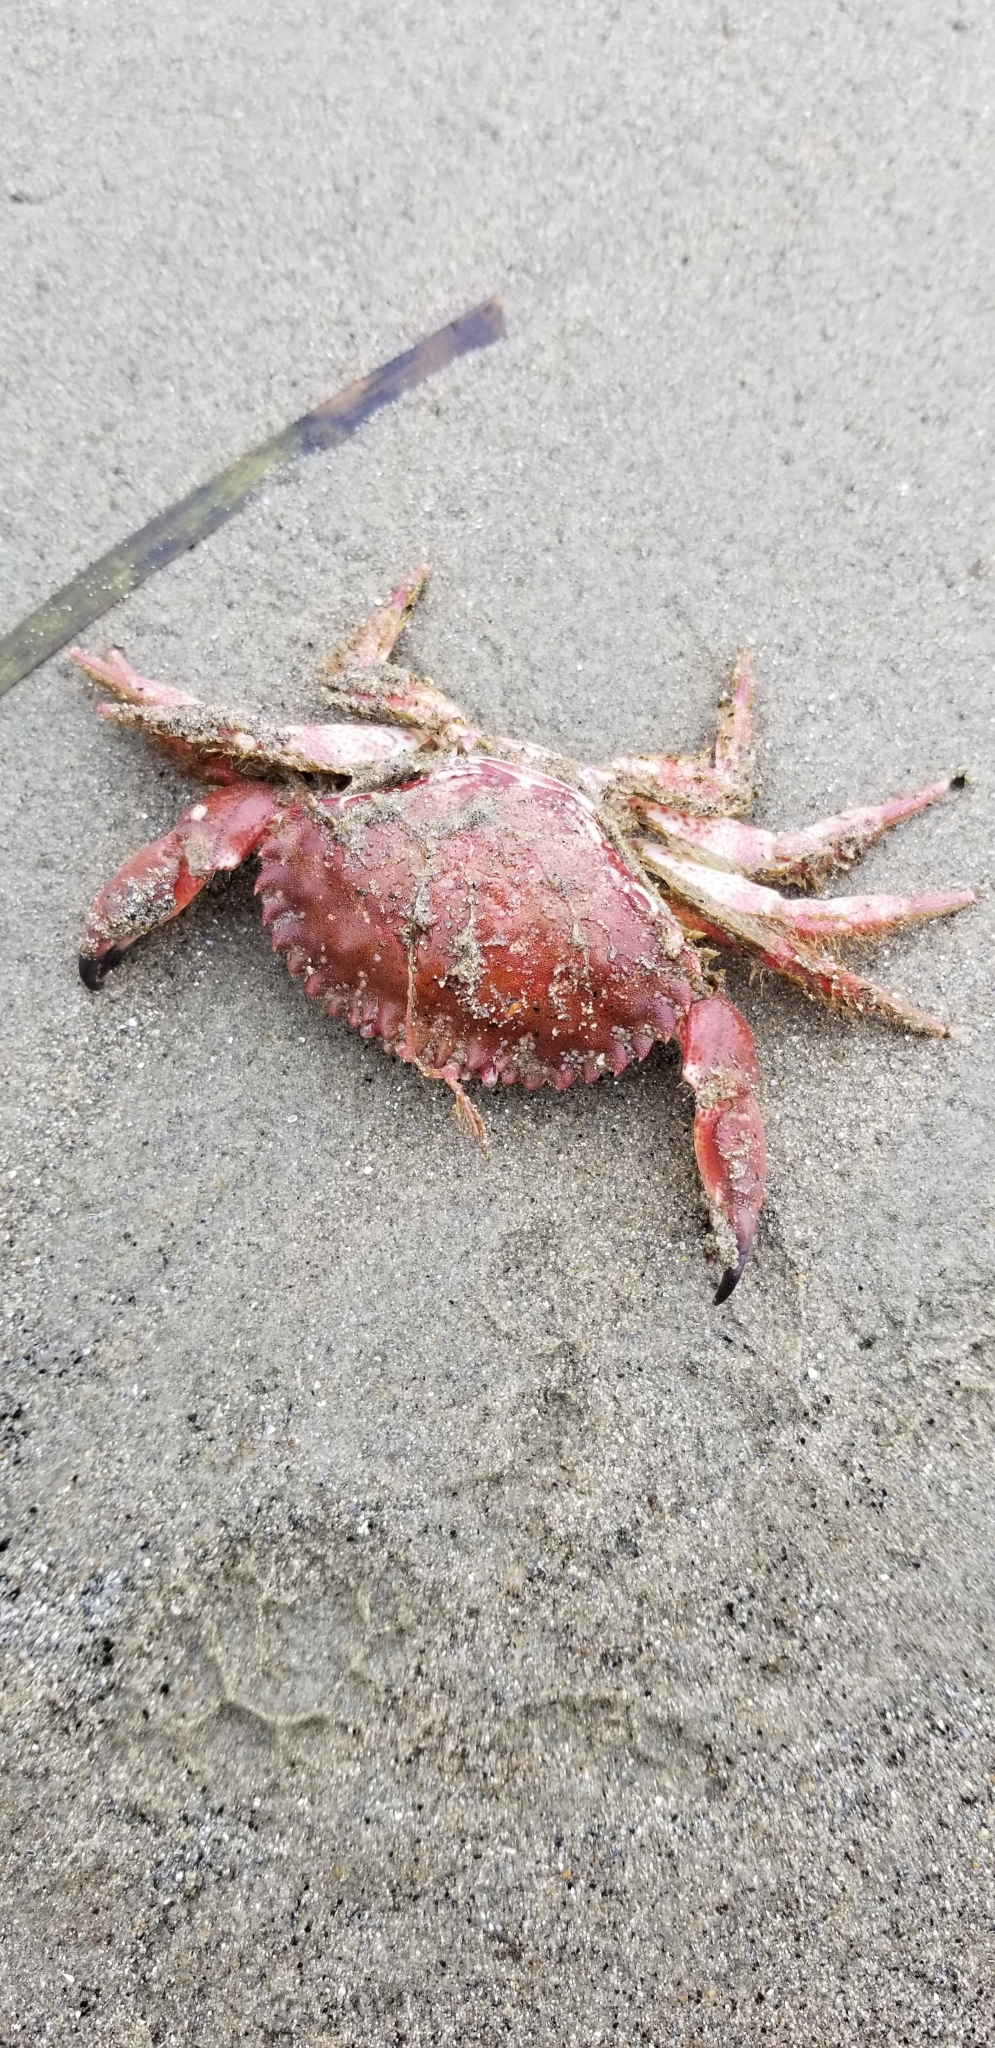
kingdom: Animalia
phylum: Arthropoda
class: Malacostraca
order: Decapoda
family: Cancridae
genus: Romaleon
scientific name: Romaleon antennarium
